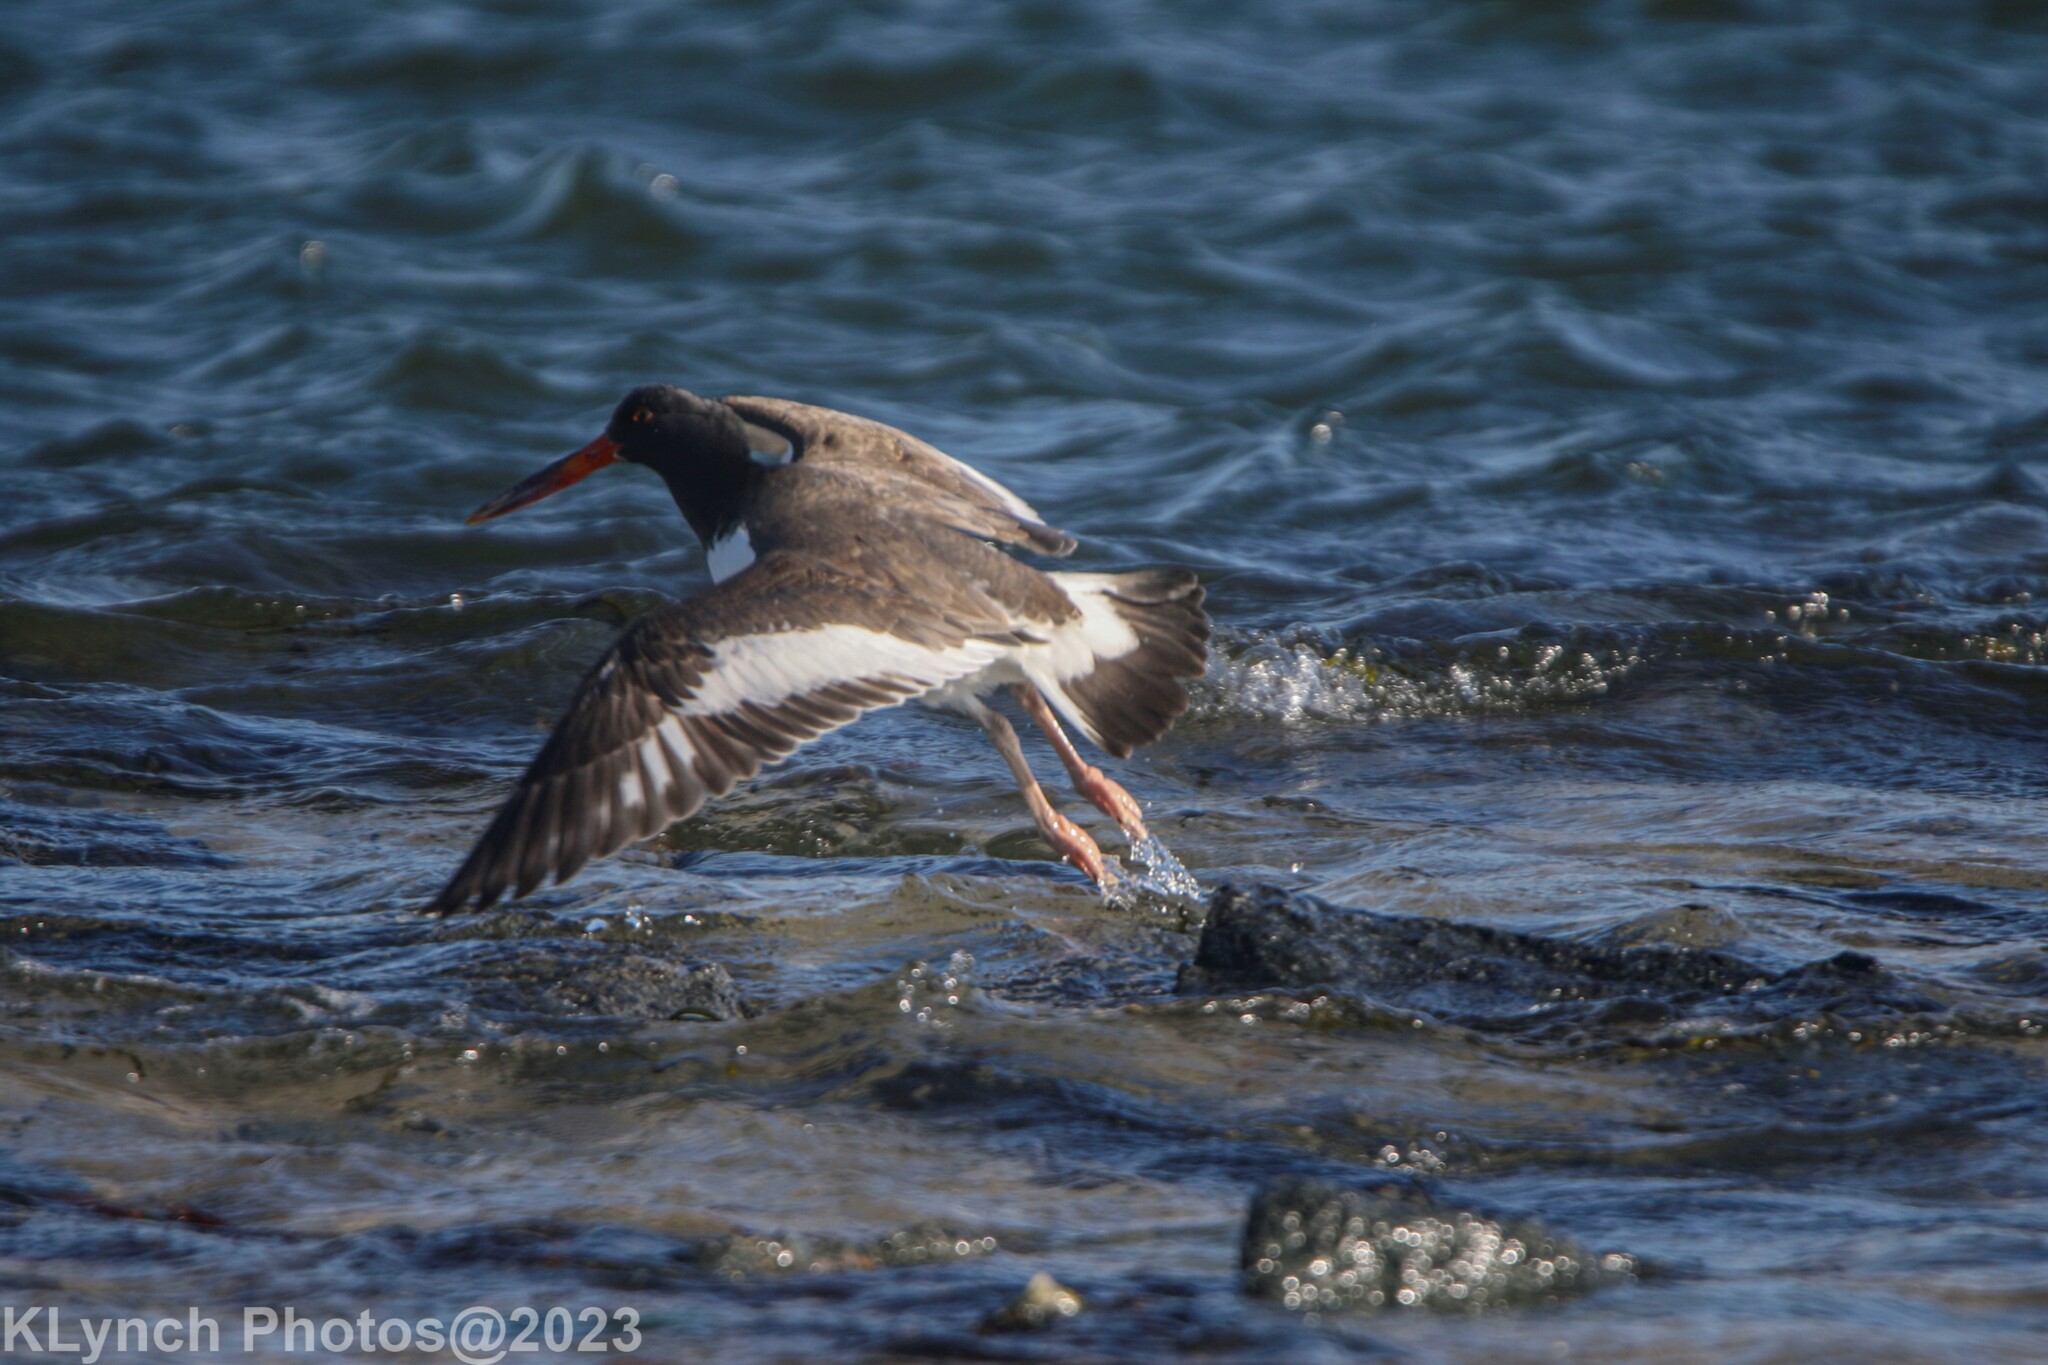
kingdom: Animalia
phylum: Chordata
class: Aves
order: Charadriiformes
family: Haematopodidae
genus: Haematopus
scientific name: Haematopus palliatus
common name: American oystercatcher
